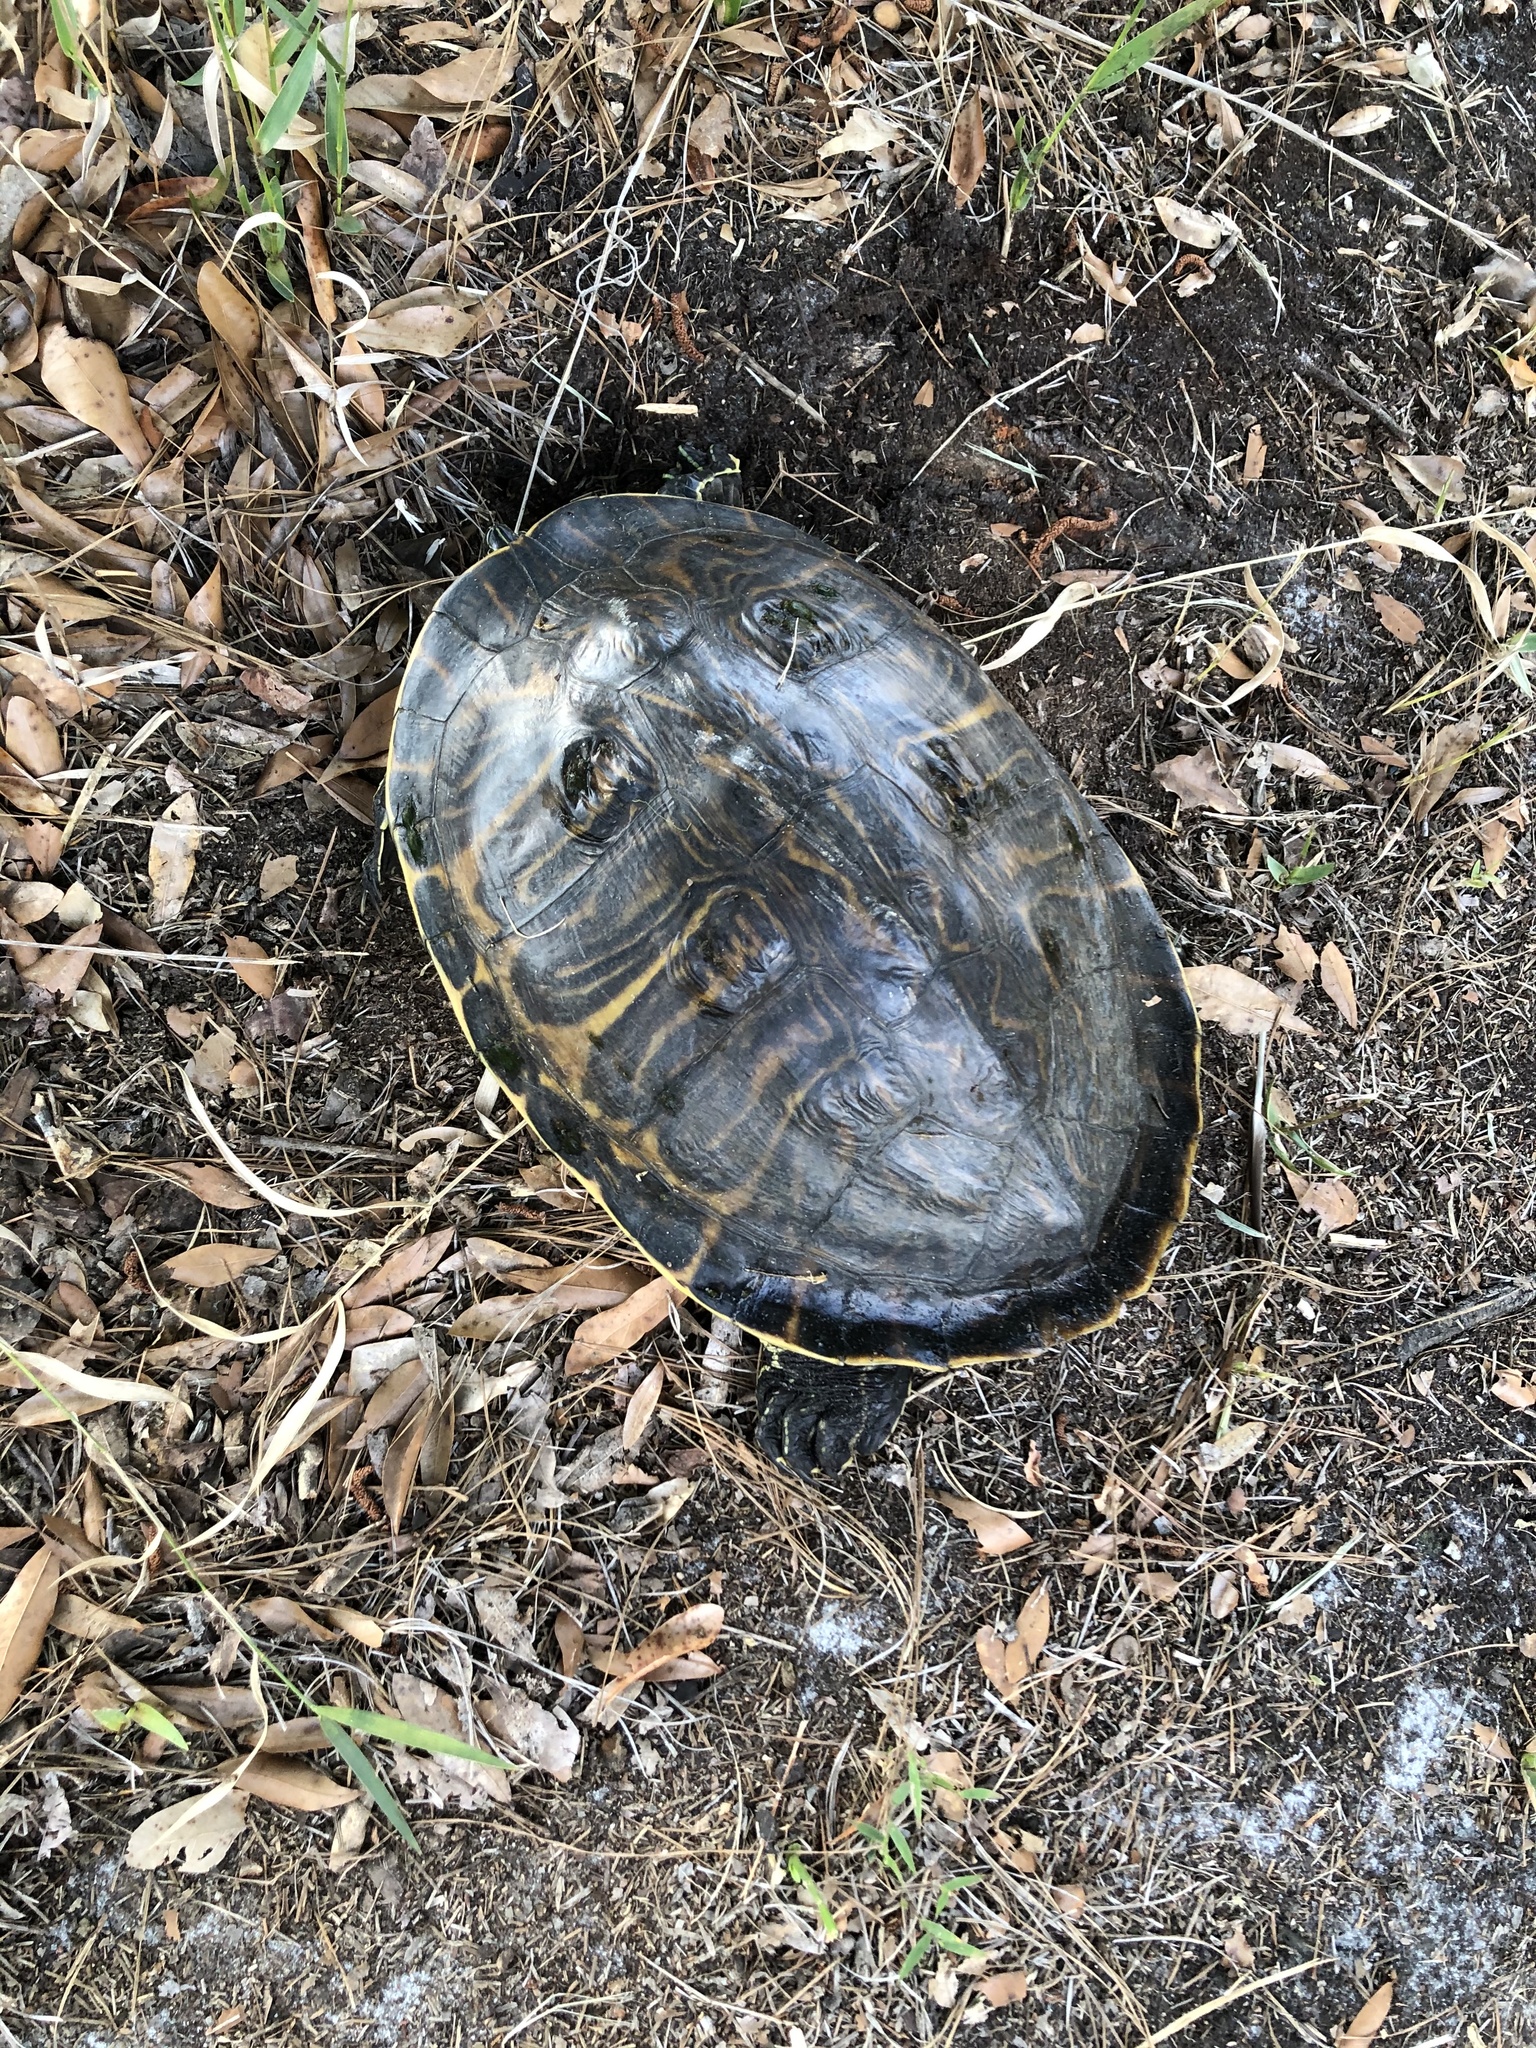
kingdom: Animalia
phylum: Chordata
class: Testudines
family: Emydidae
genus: Pseudemys
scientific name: Pseudemys peninsularis
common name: Peninsula cooter
